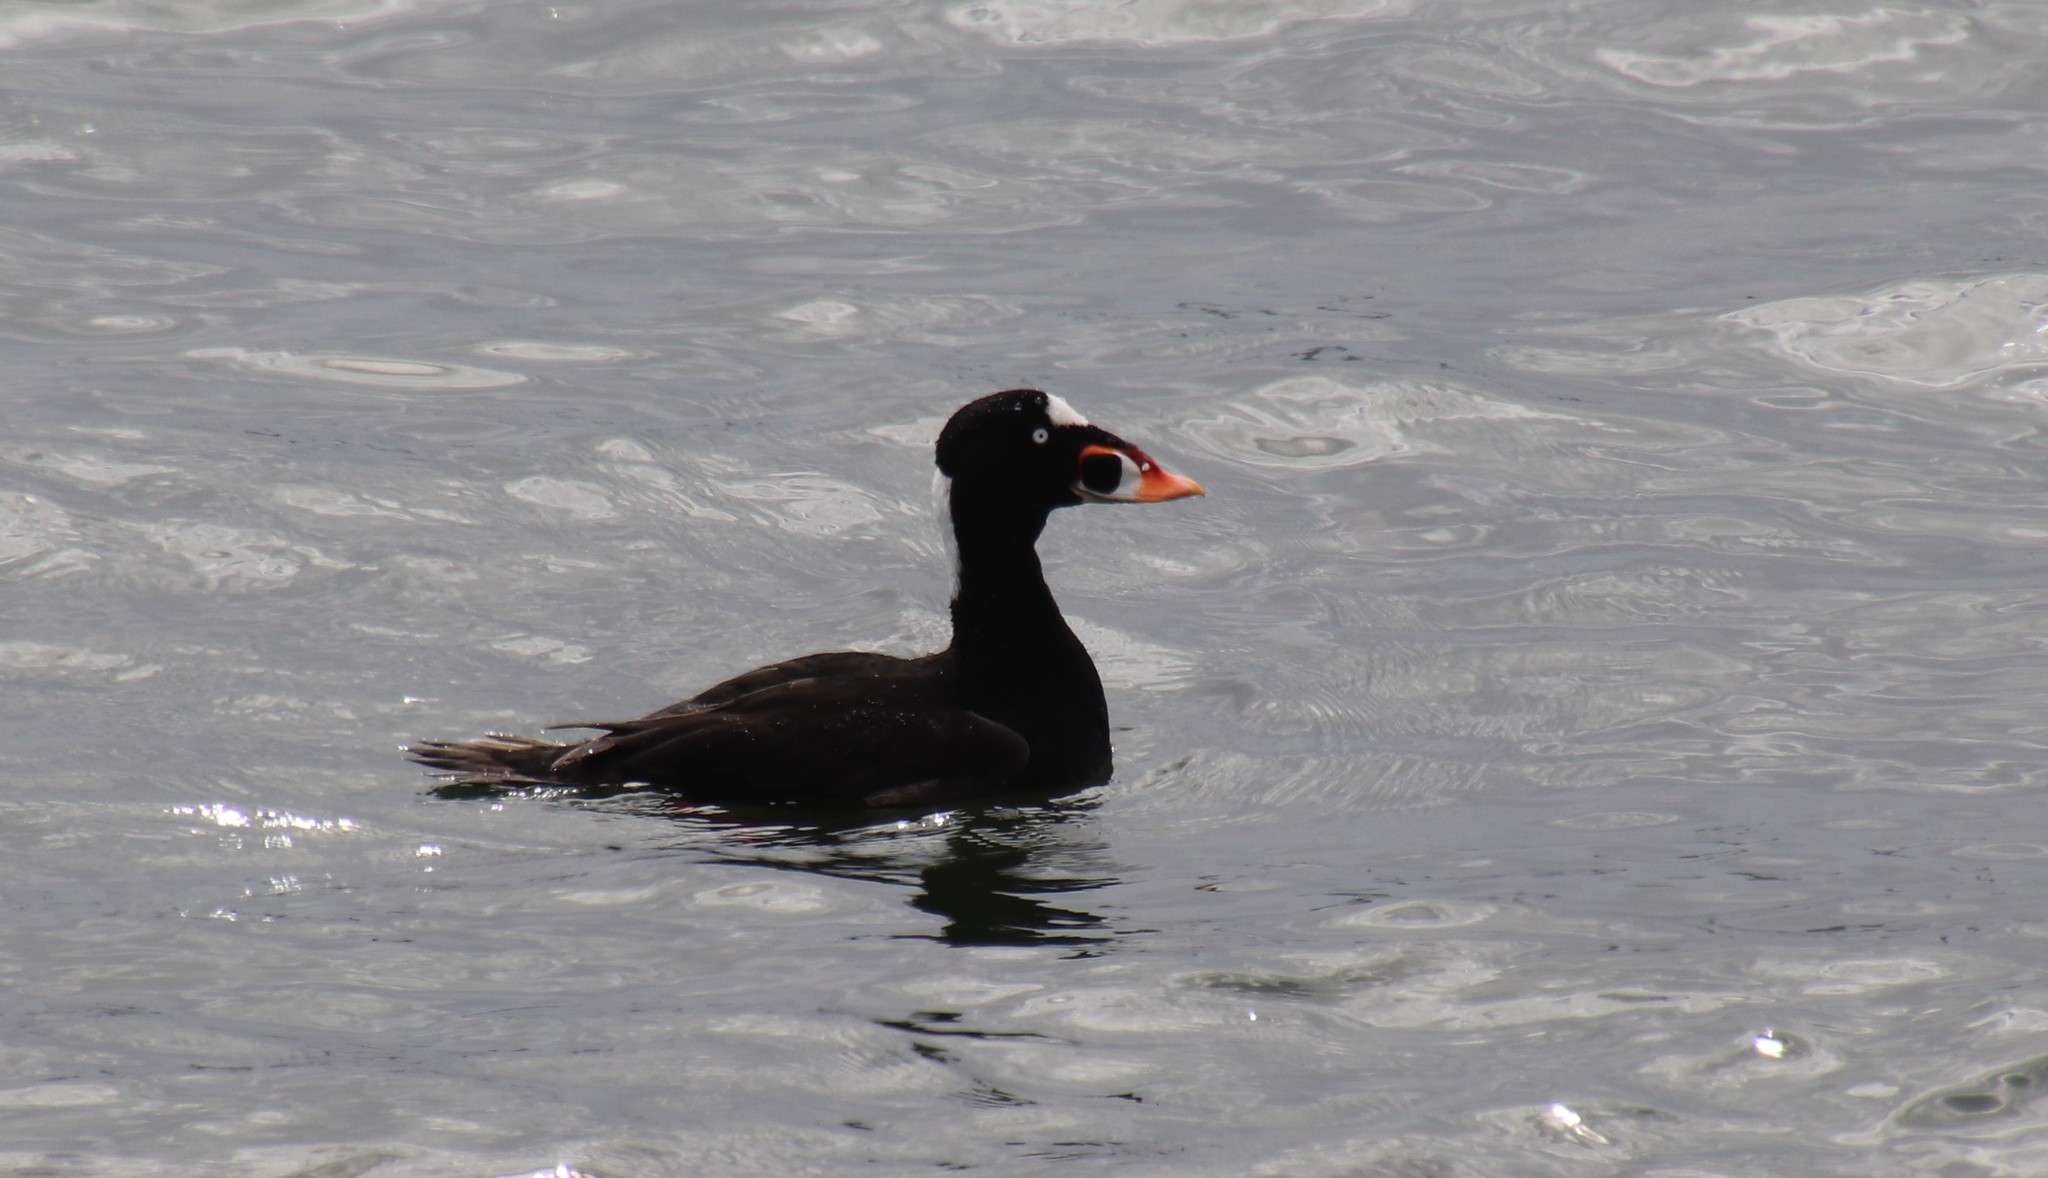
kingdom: Animalia
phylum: Chordata
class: Aves
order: Anseriformes
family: Anatidae
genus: Melanitta
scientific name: Melanitta perspicillata
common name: Surf scoter
